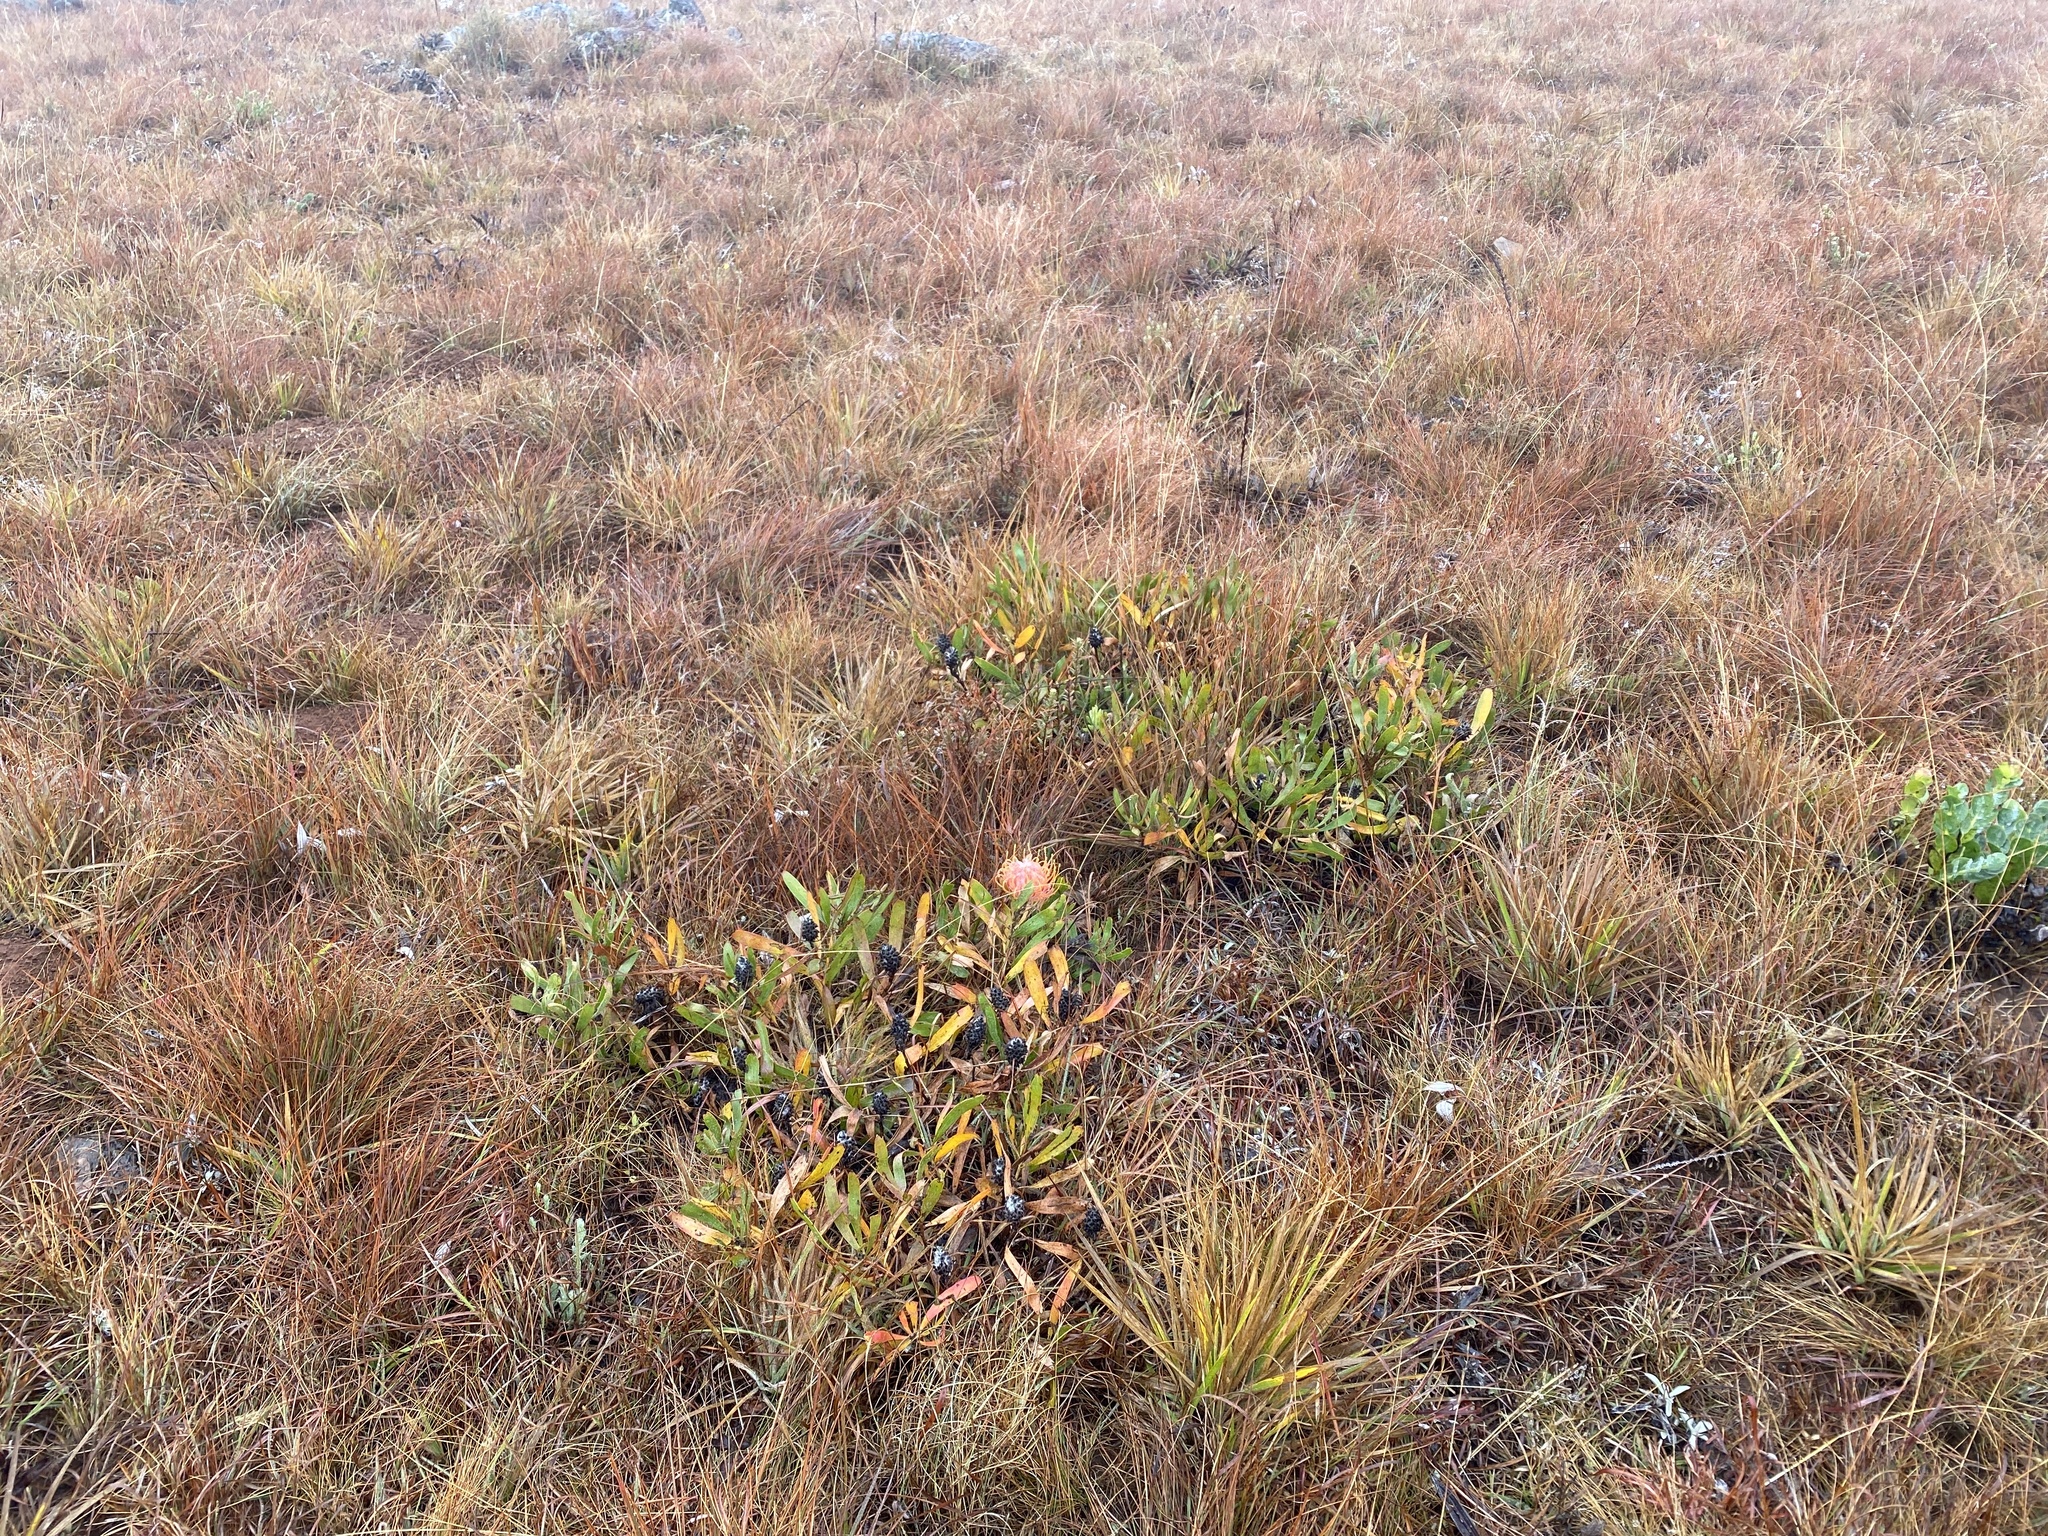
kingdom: Plantae
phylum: Tracheophyta
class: Magnoliopsida
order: Proteales
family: Proteaceae
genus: Leucospermum
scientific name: Leucospermum gerrardii
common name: Soapstone pincushion
